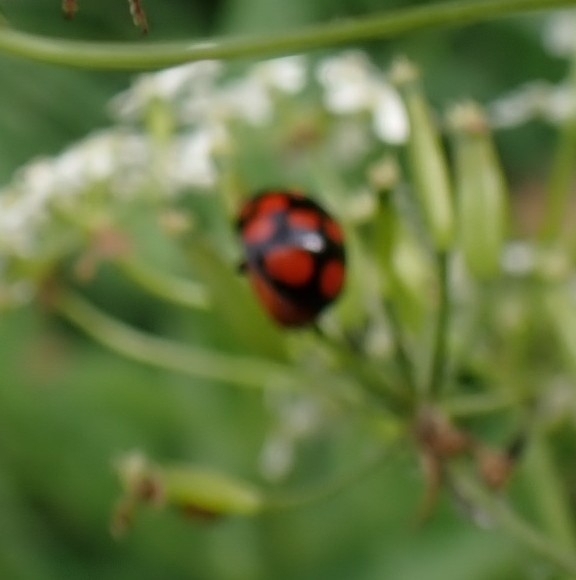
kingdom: Animalia
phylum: Arthropoda
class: Insecta
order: Coleoptera
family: Coccinellidae
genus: Harmonia
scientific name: Harmonia axyridis
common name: Harlequin ladybird
